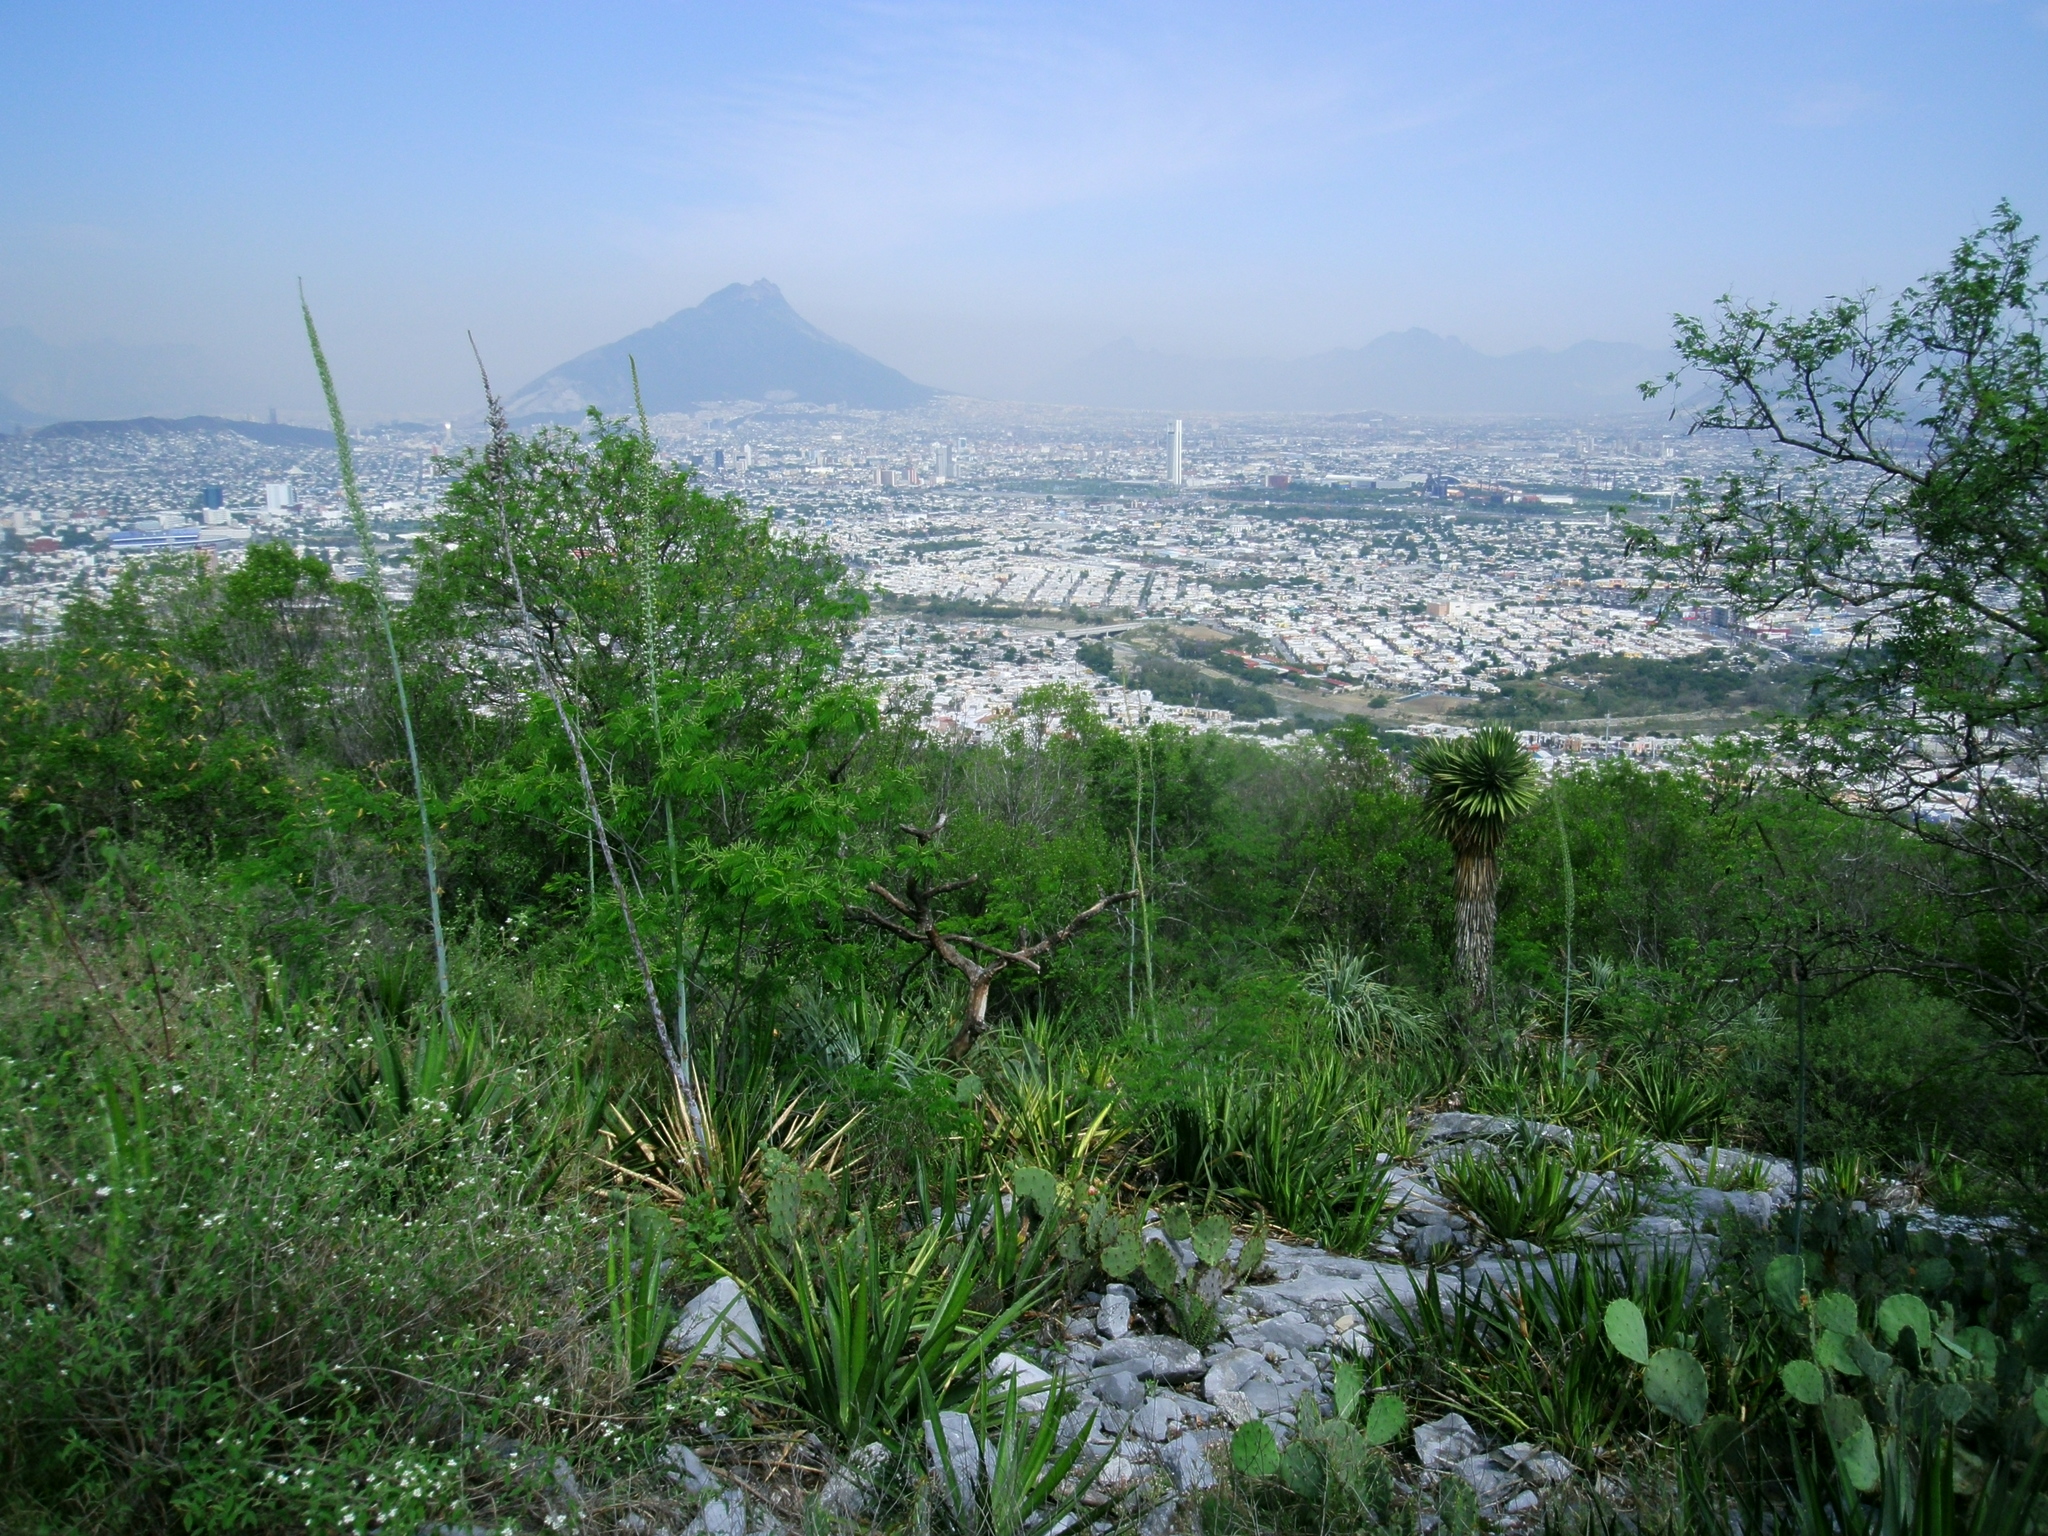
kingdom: Plantae
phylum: Tracheophyta
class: Liliopsida
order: Asparagales
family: Asparagaceae
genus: Agave
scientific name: Agave univittata
